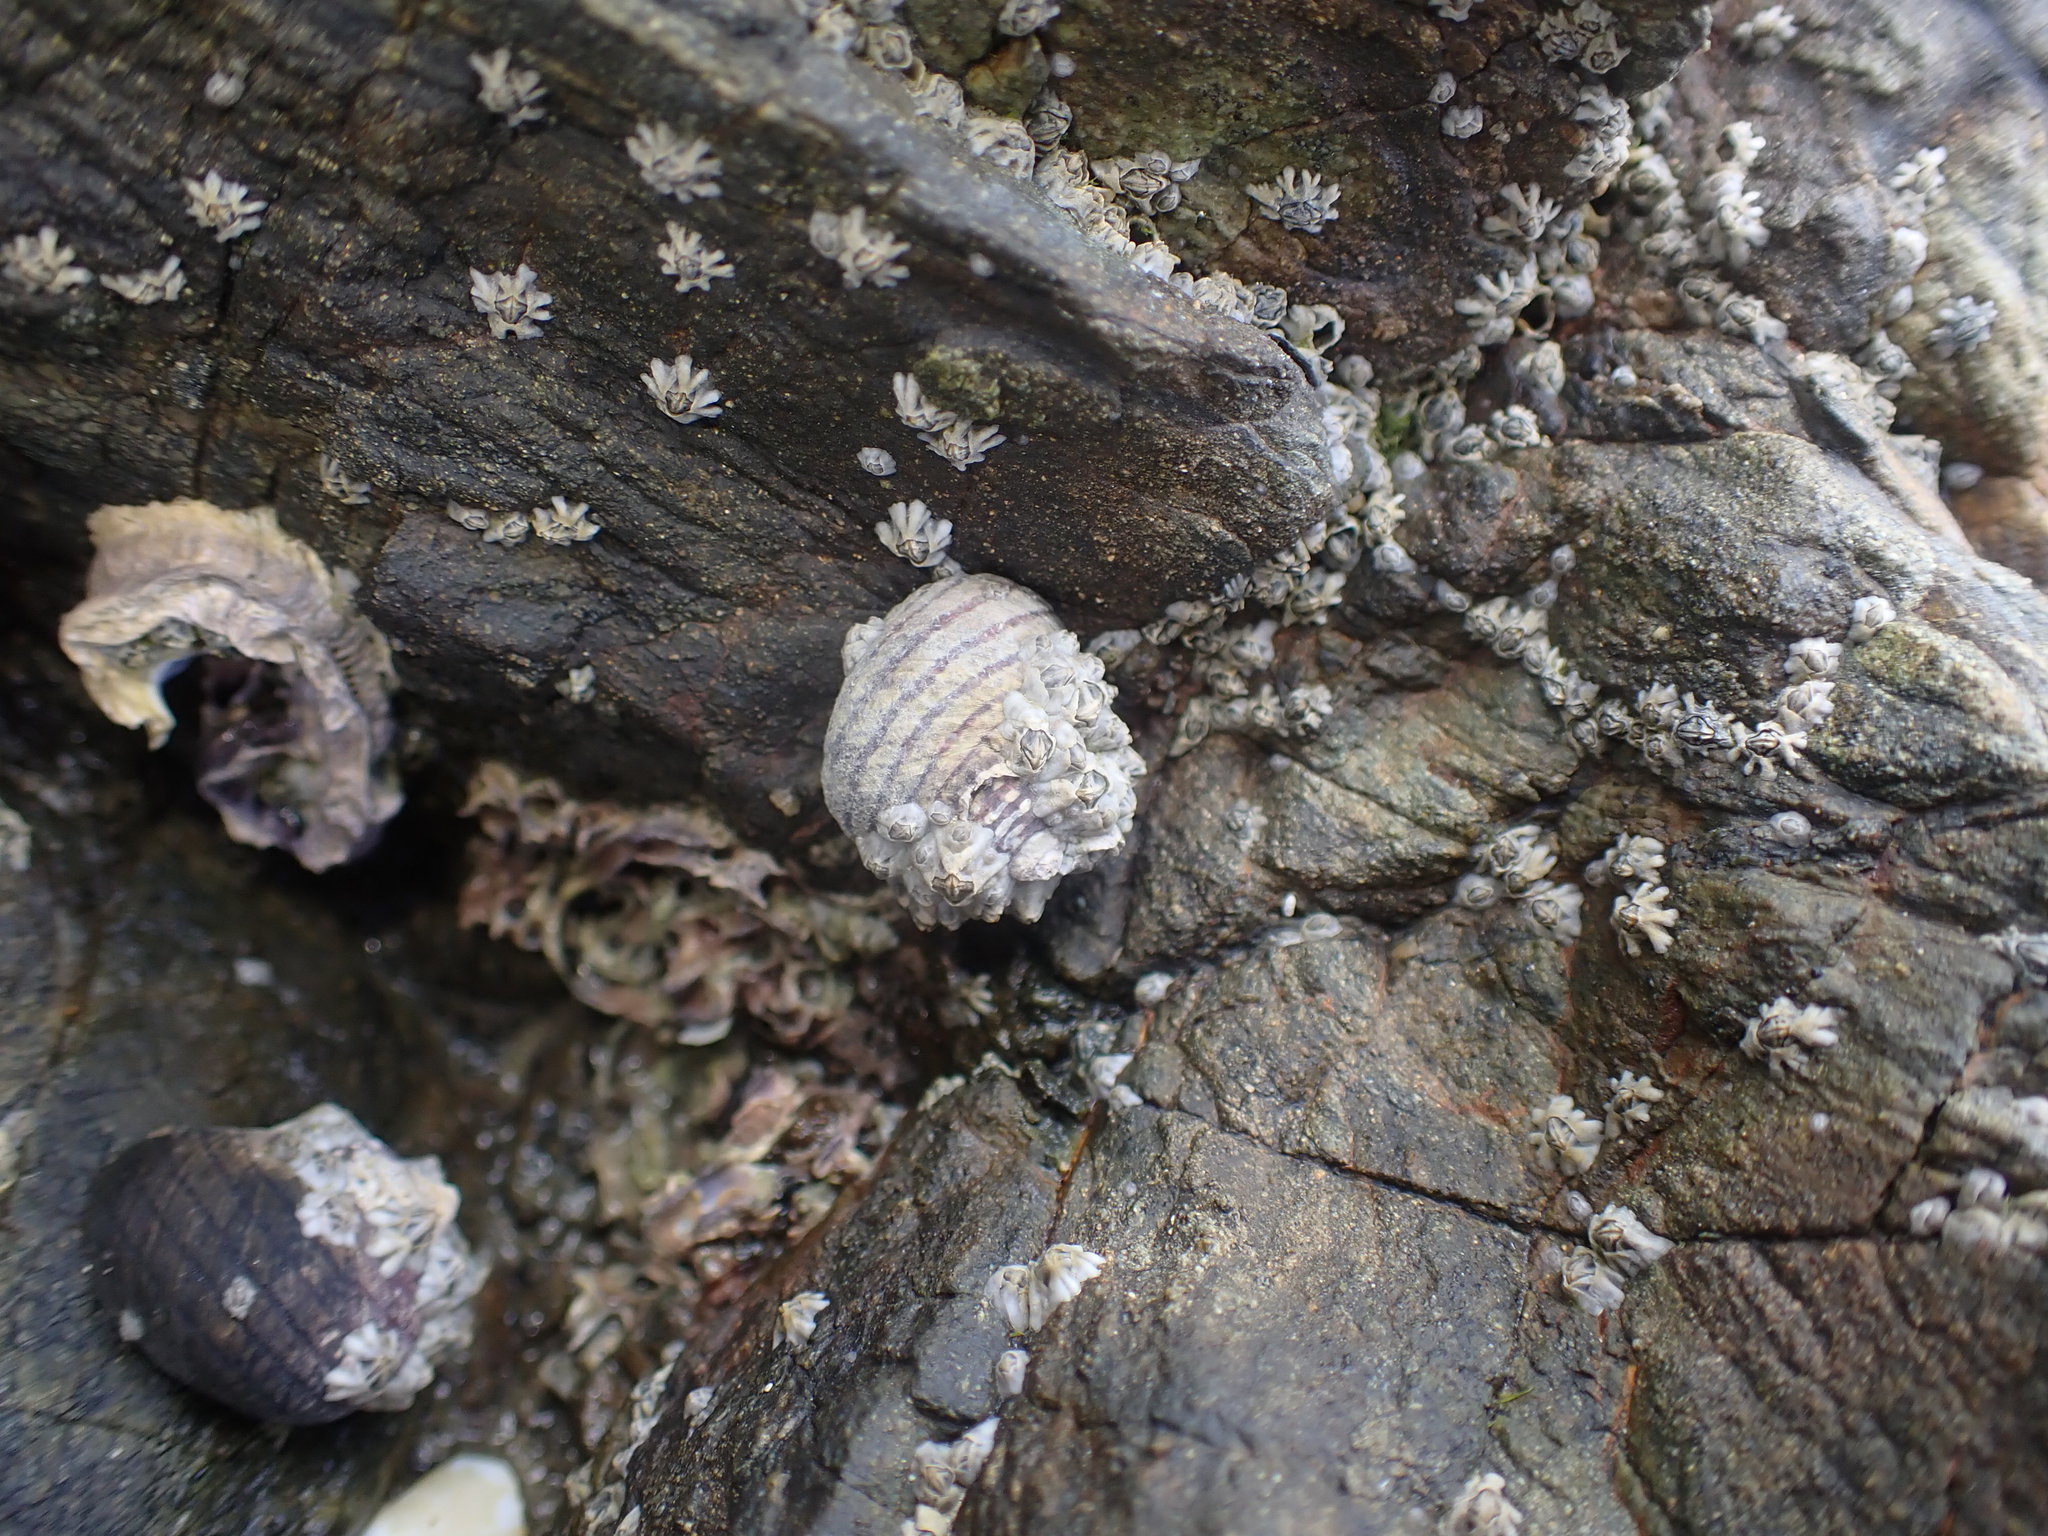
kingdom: Animalia
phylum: Mollusca
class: Gastropoda
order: Trochida
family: Trochidae
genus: Diloma
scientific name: Diloma aethiops
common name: Scorched monodont
